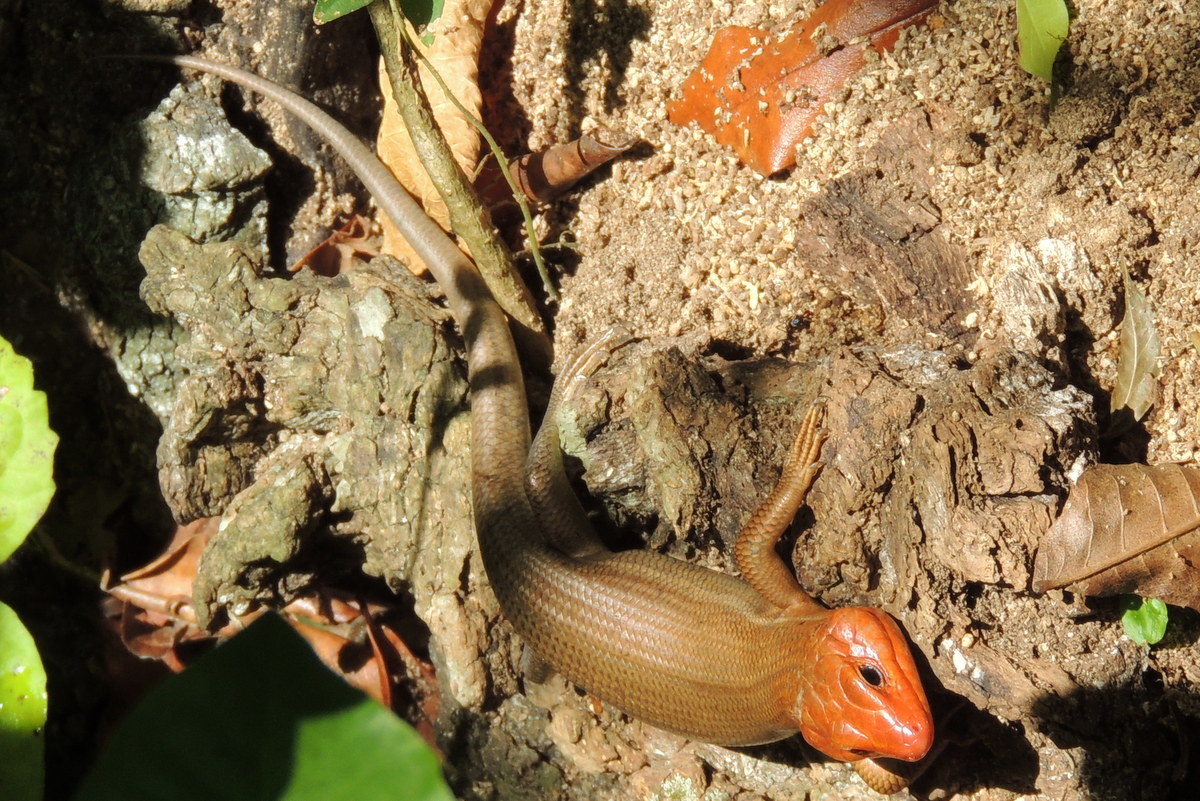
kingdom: Animalia
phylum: Chordata
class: Squamata
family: Scincidae
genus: Plestiodon
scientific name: Plestiodon laticeps
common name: Broadhead skink
